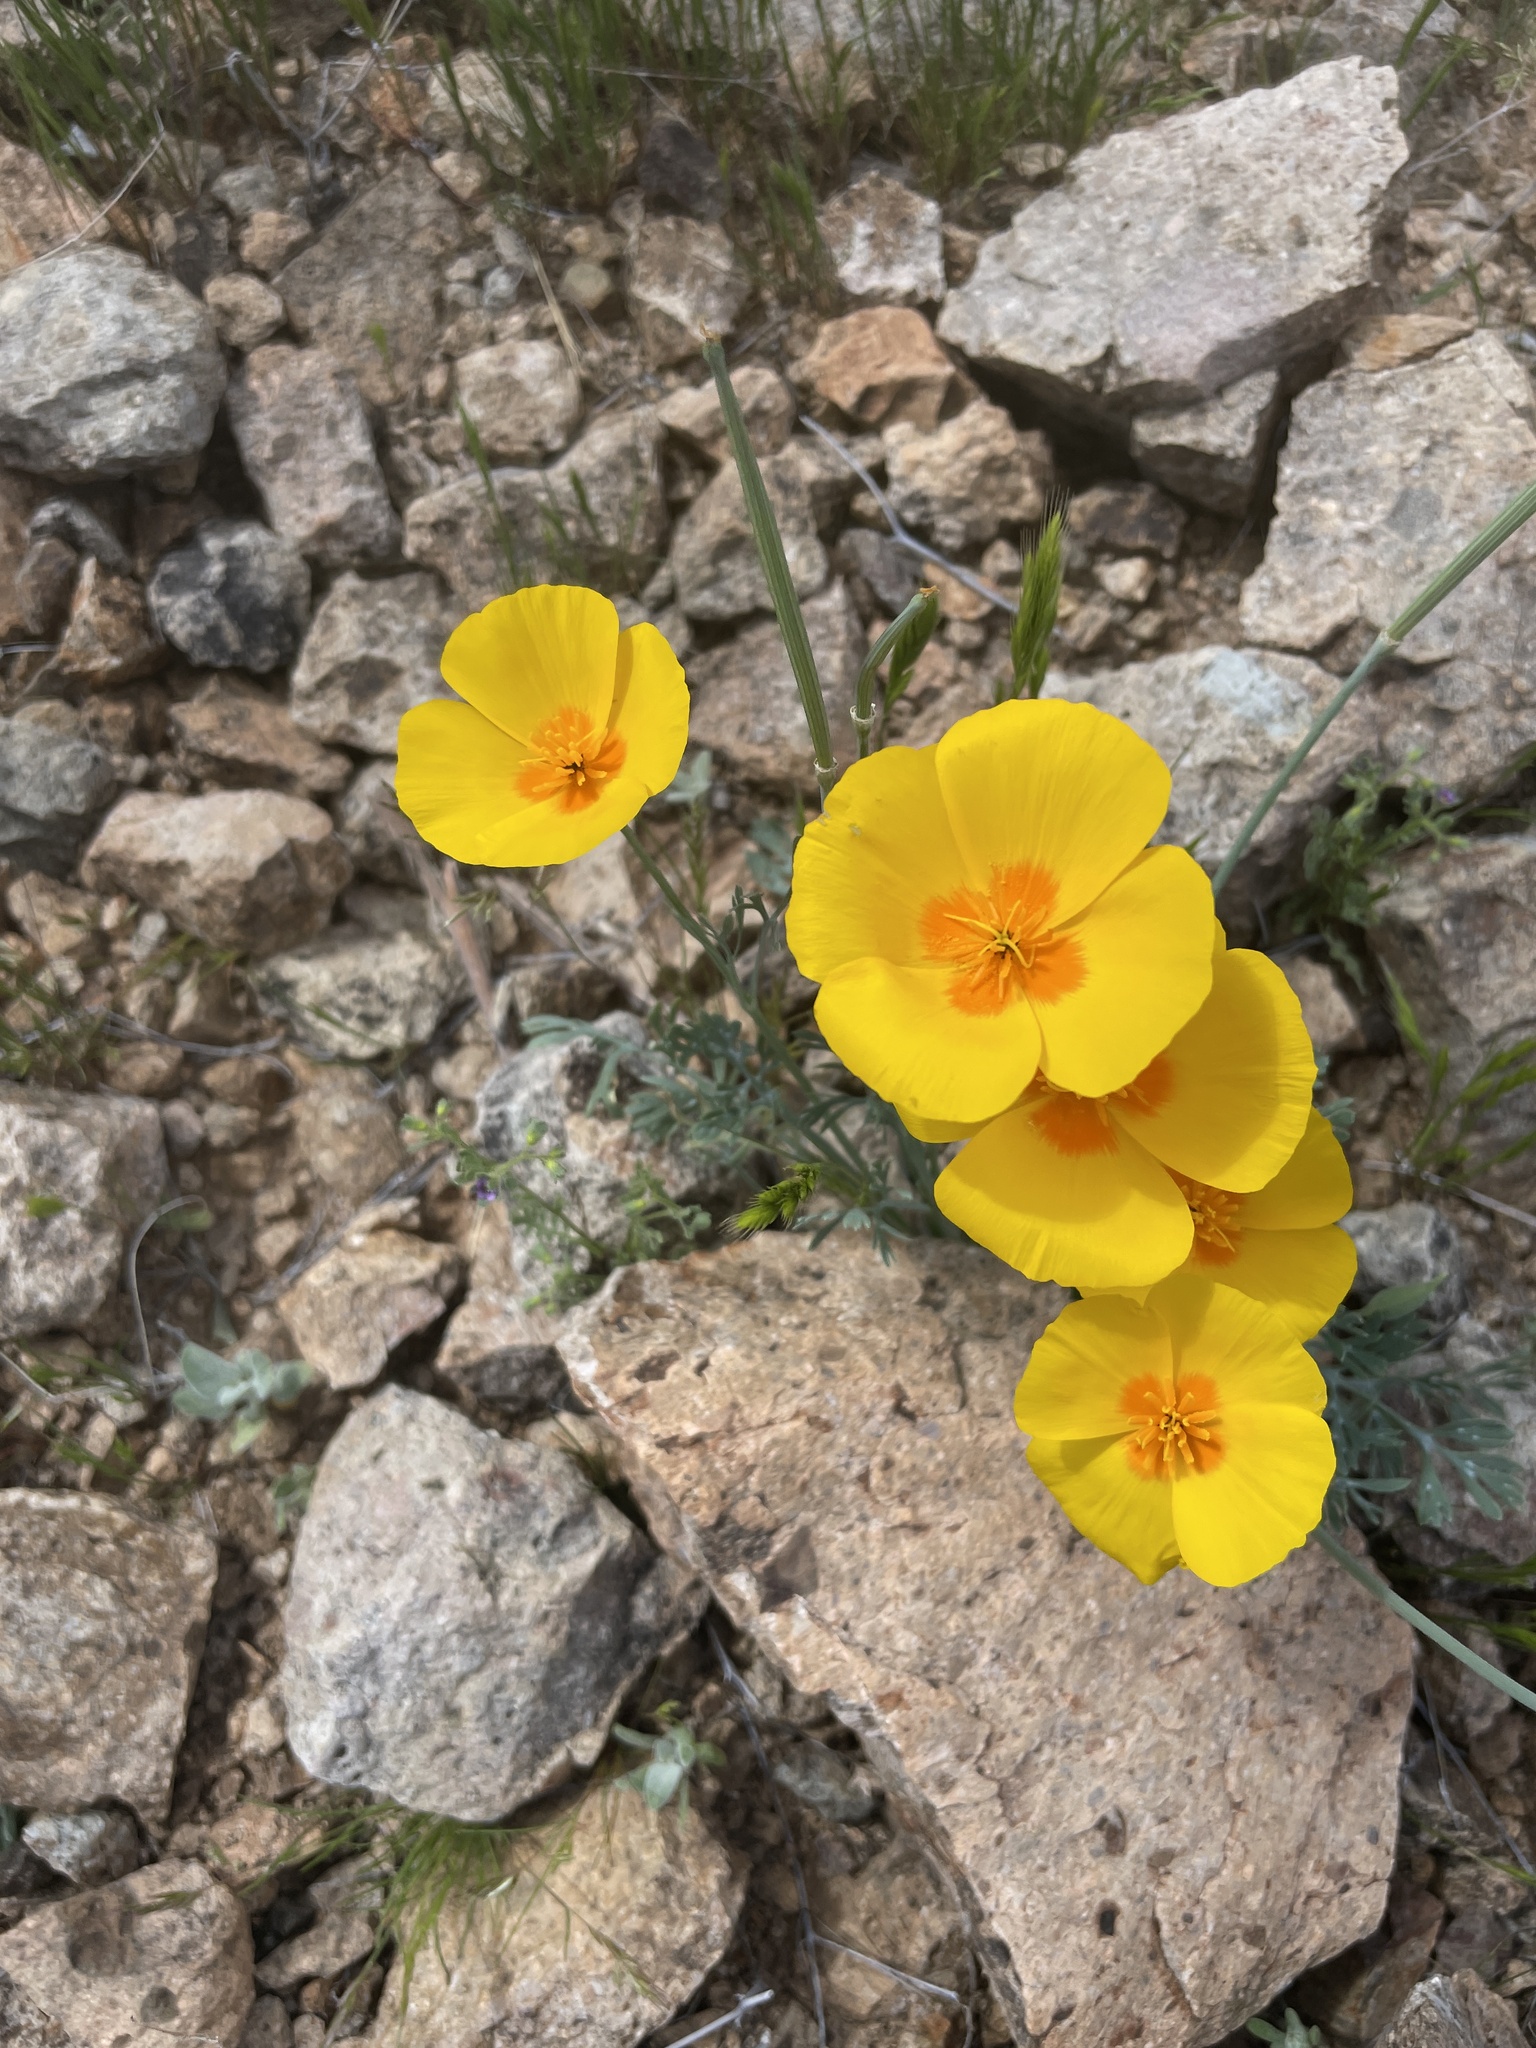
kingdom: Plantae
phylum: Tracheophyta
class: Magnoliopsida
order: Ranunculales
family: Papaveraceae
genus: Eschscholzia
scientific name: Eschscholzia californica
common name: California poppy
